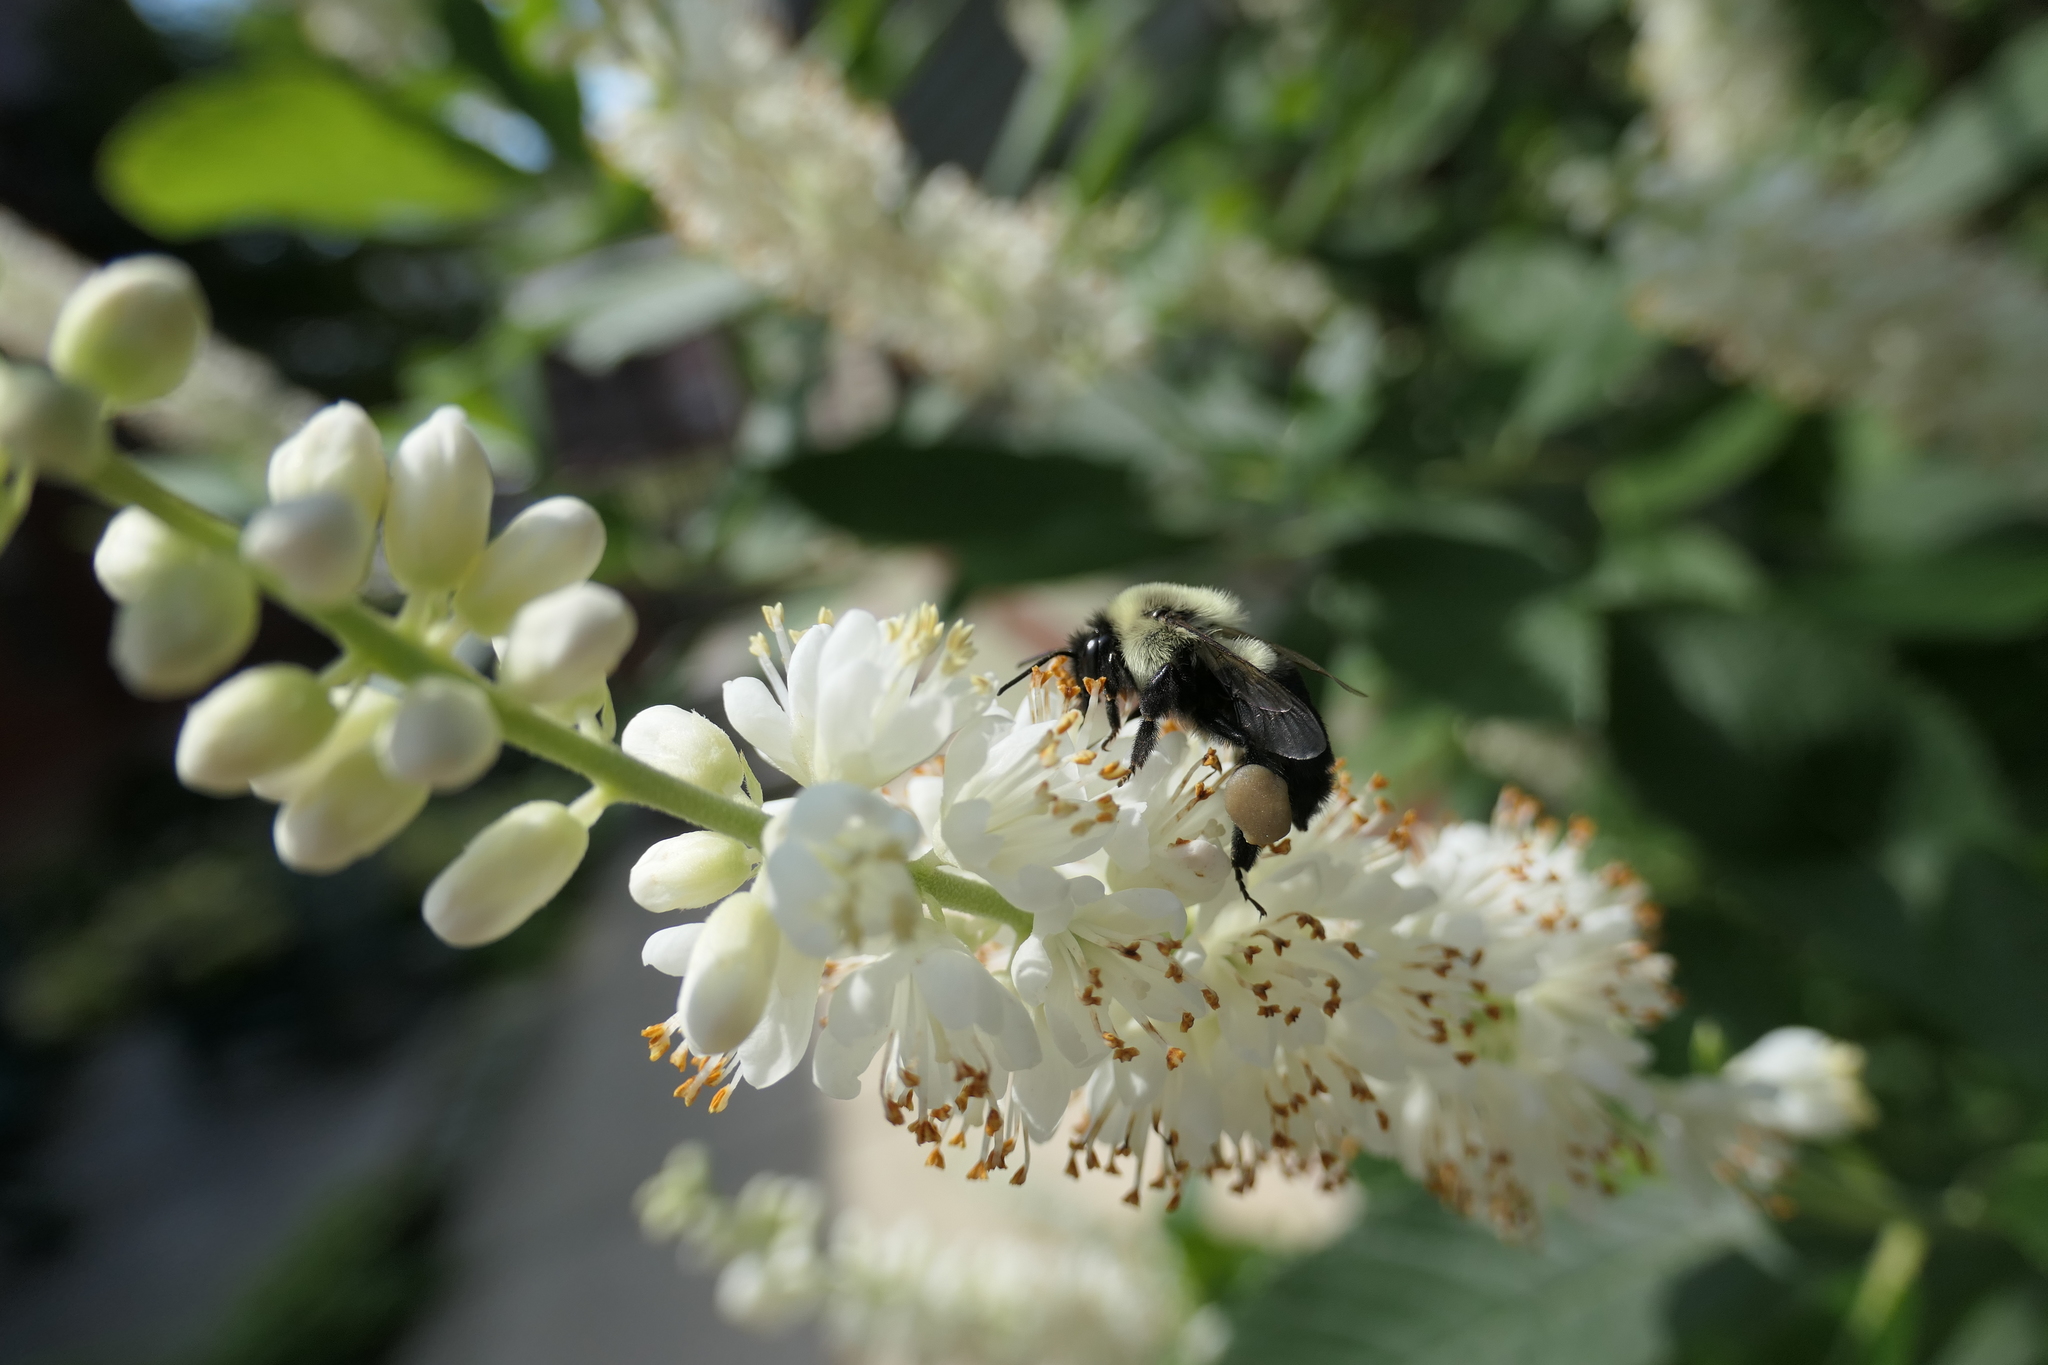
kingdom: Animalia
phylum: Arthropoda
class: Insecta
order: Hymenoptera
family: Apidae
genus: Bombus
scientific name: Bombus impatiens
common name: Common eastern bumble bee
